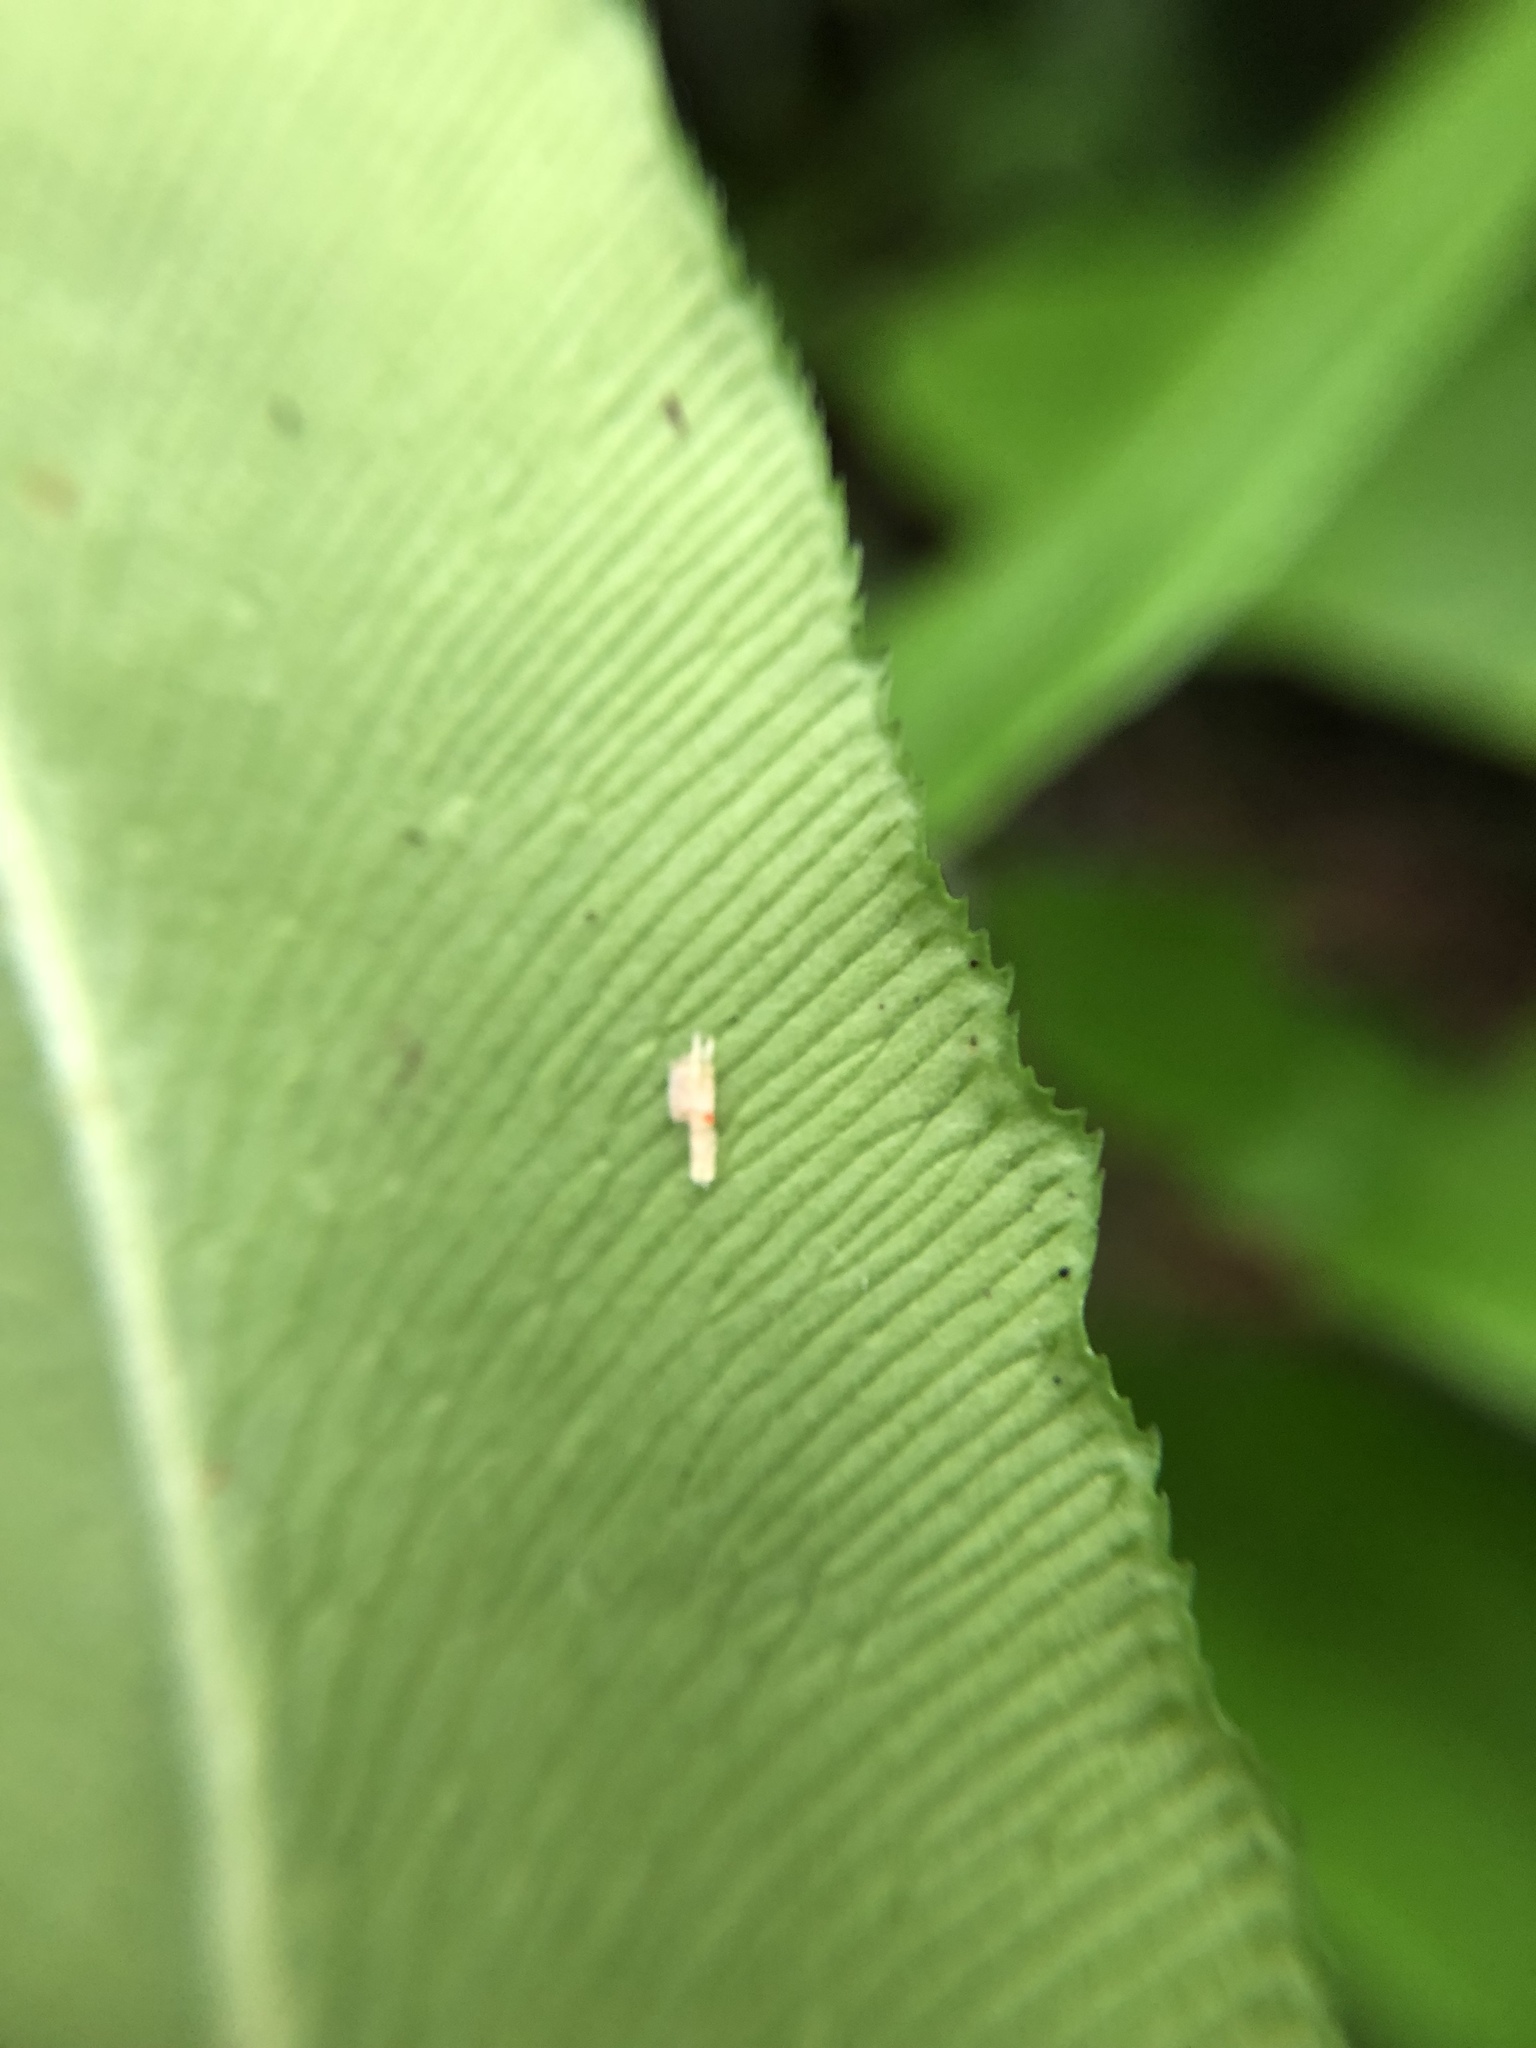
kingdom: Plantae
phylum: Tracheophyta
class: Polypodiopsida
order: Polypodiales
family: Pteridaceae
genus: Coniogramme
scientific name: Coniogramme intermedia
